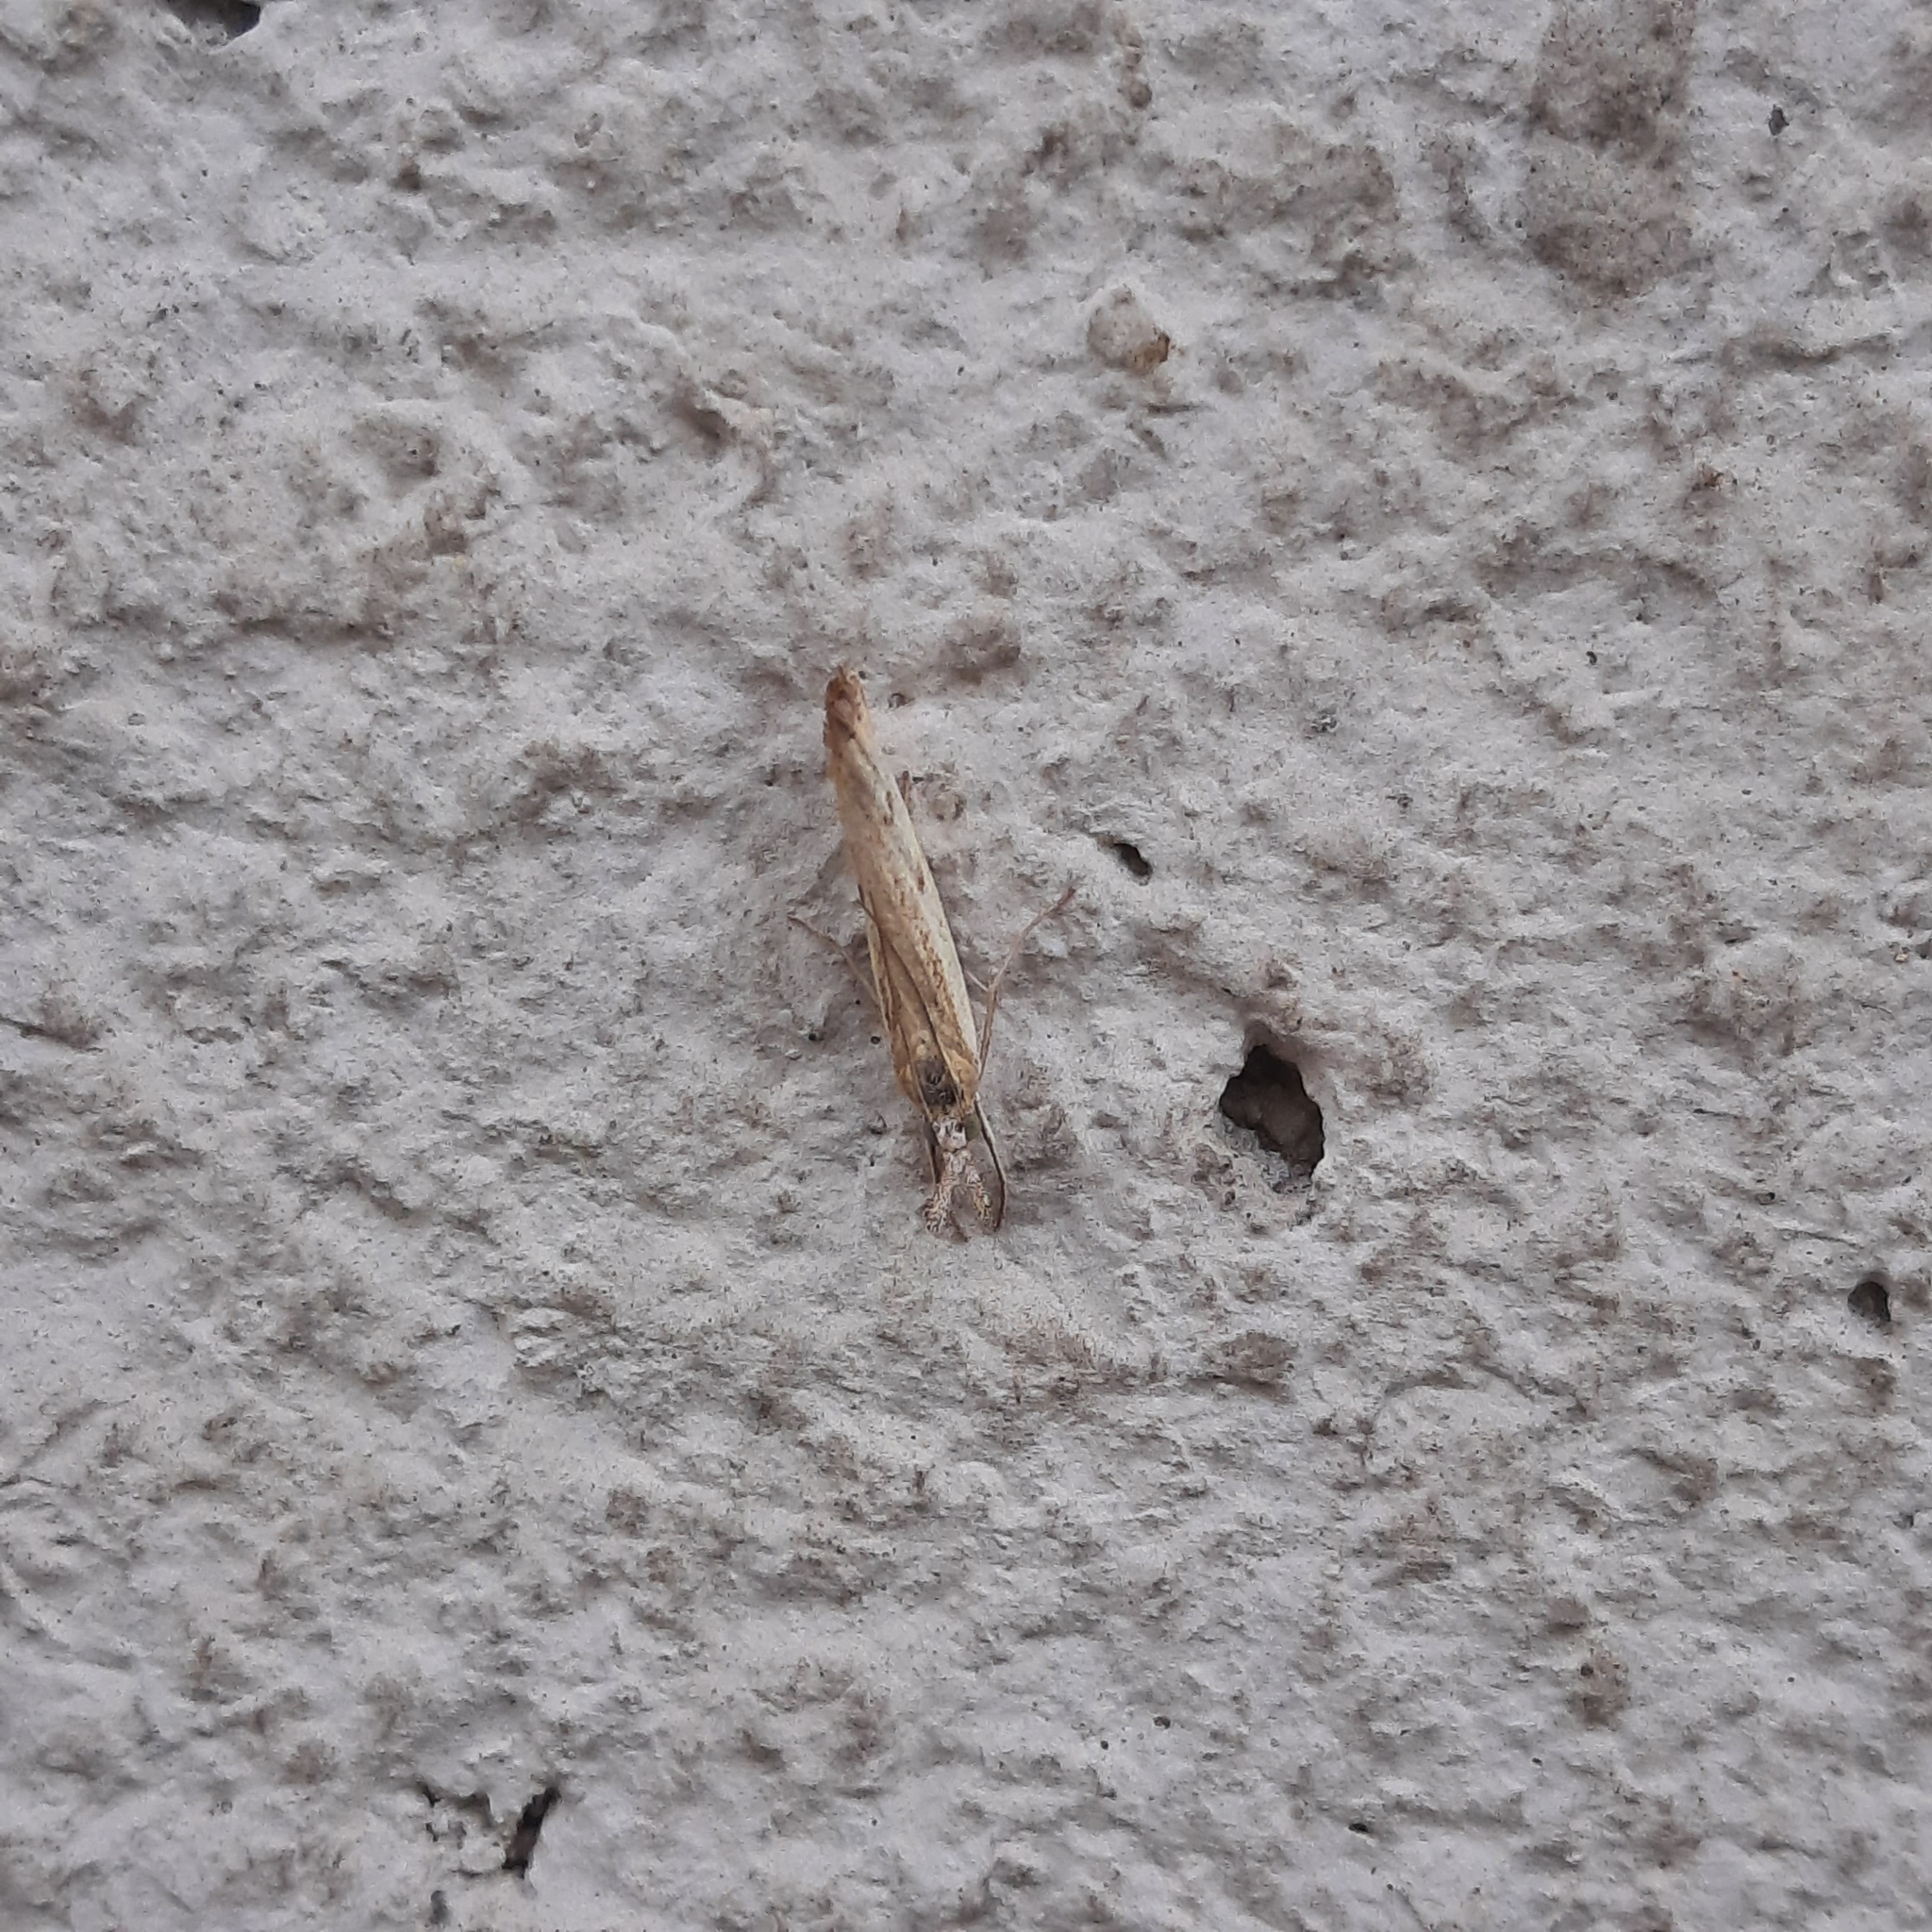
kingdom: Animalia
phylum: Arthropoda
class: Insecta
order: Lepidoptera
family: Crambidae
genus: Agriphila
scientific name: Agriphila inquinatella
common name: Barred grass-veneer
